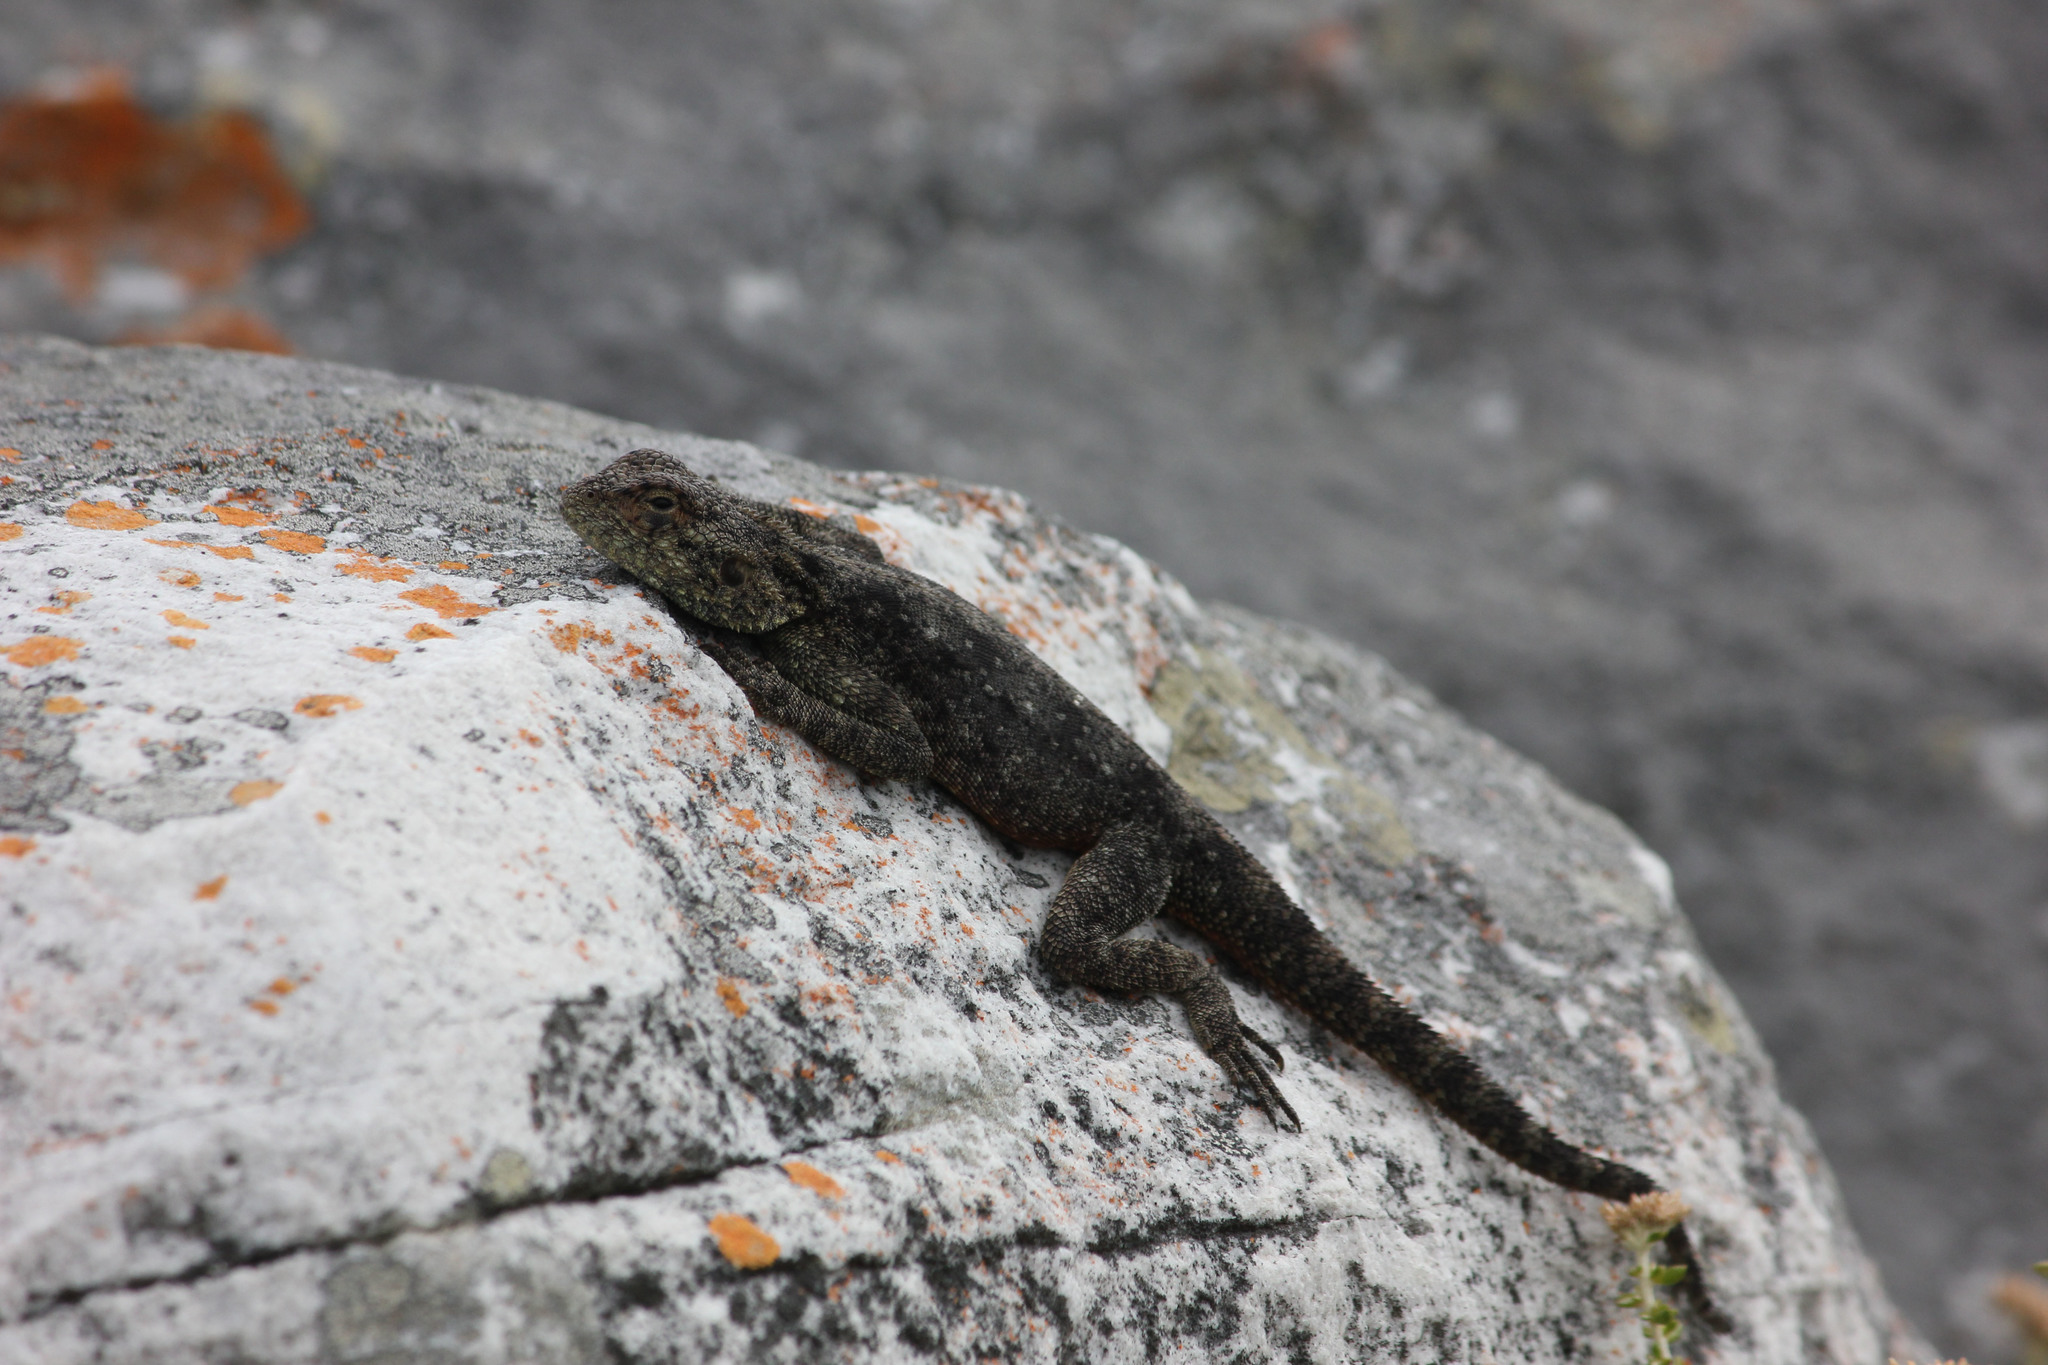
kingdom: Animalia
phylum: Chordata
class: Squamata
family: Agamidae
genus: Agama
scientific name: Agama atra
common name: Southern african rock agama
